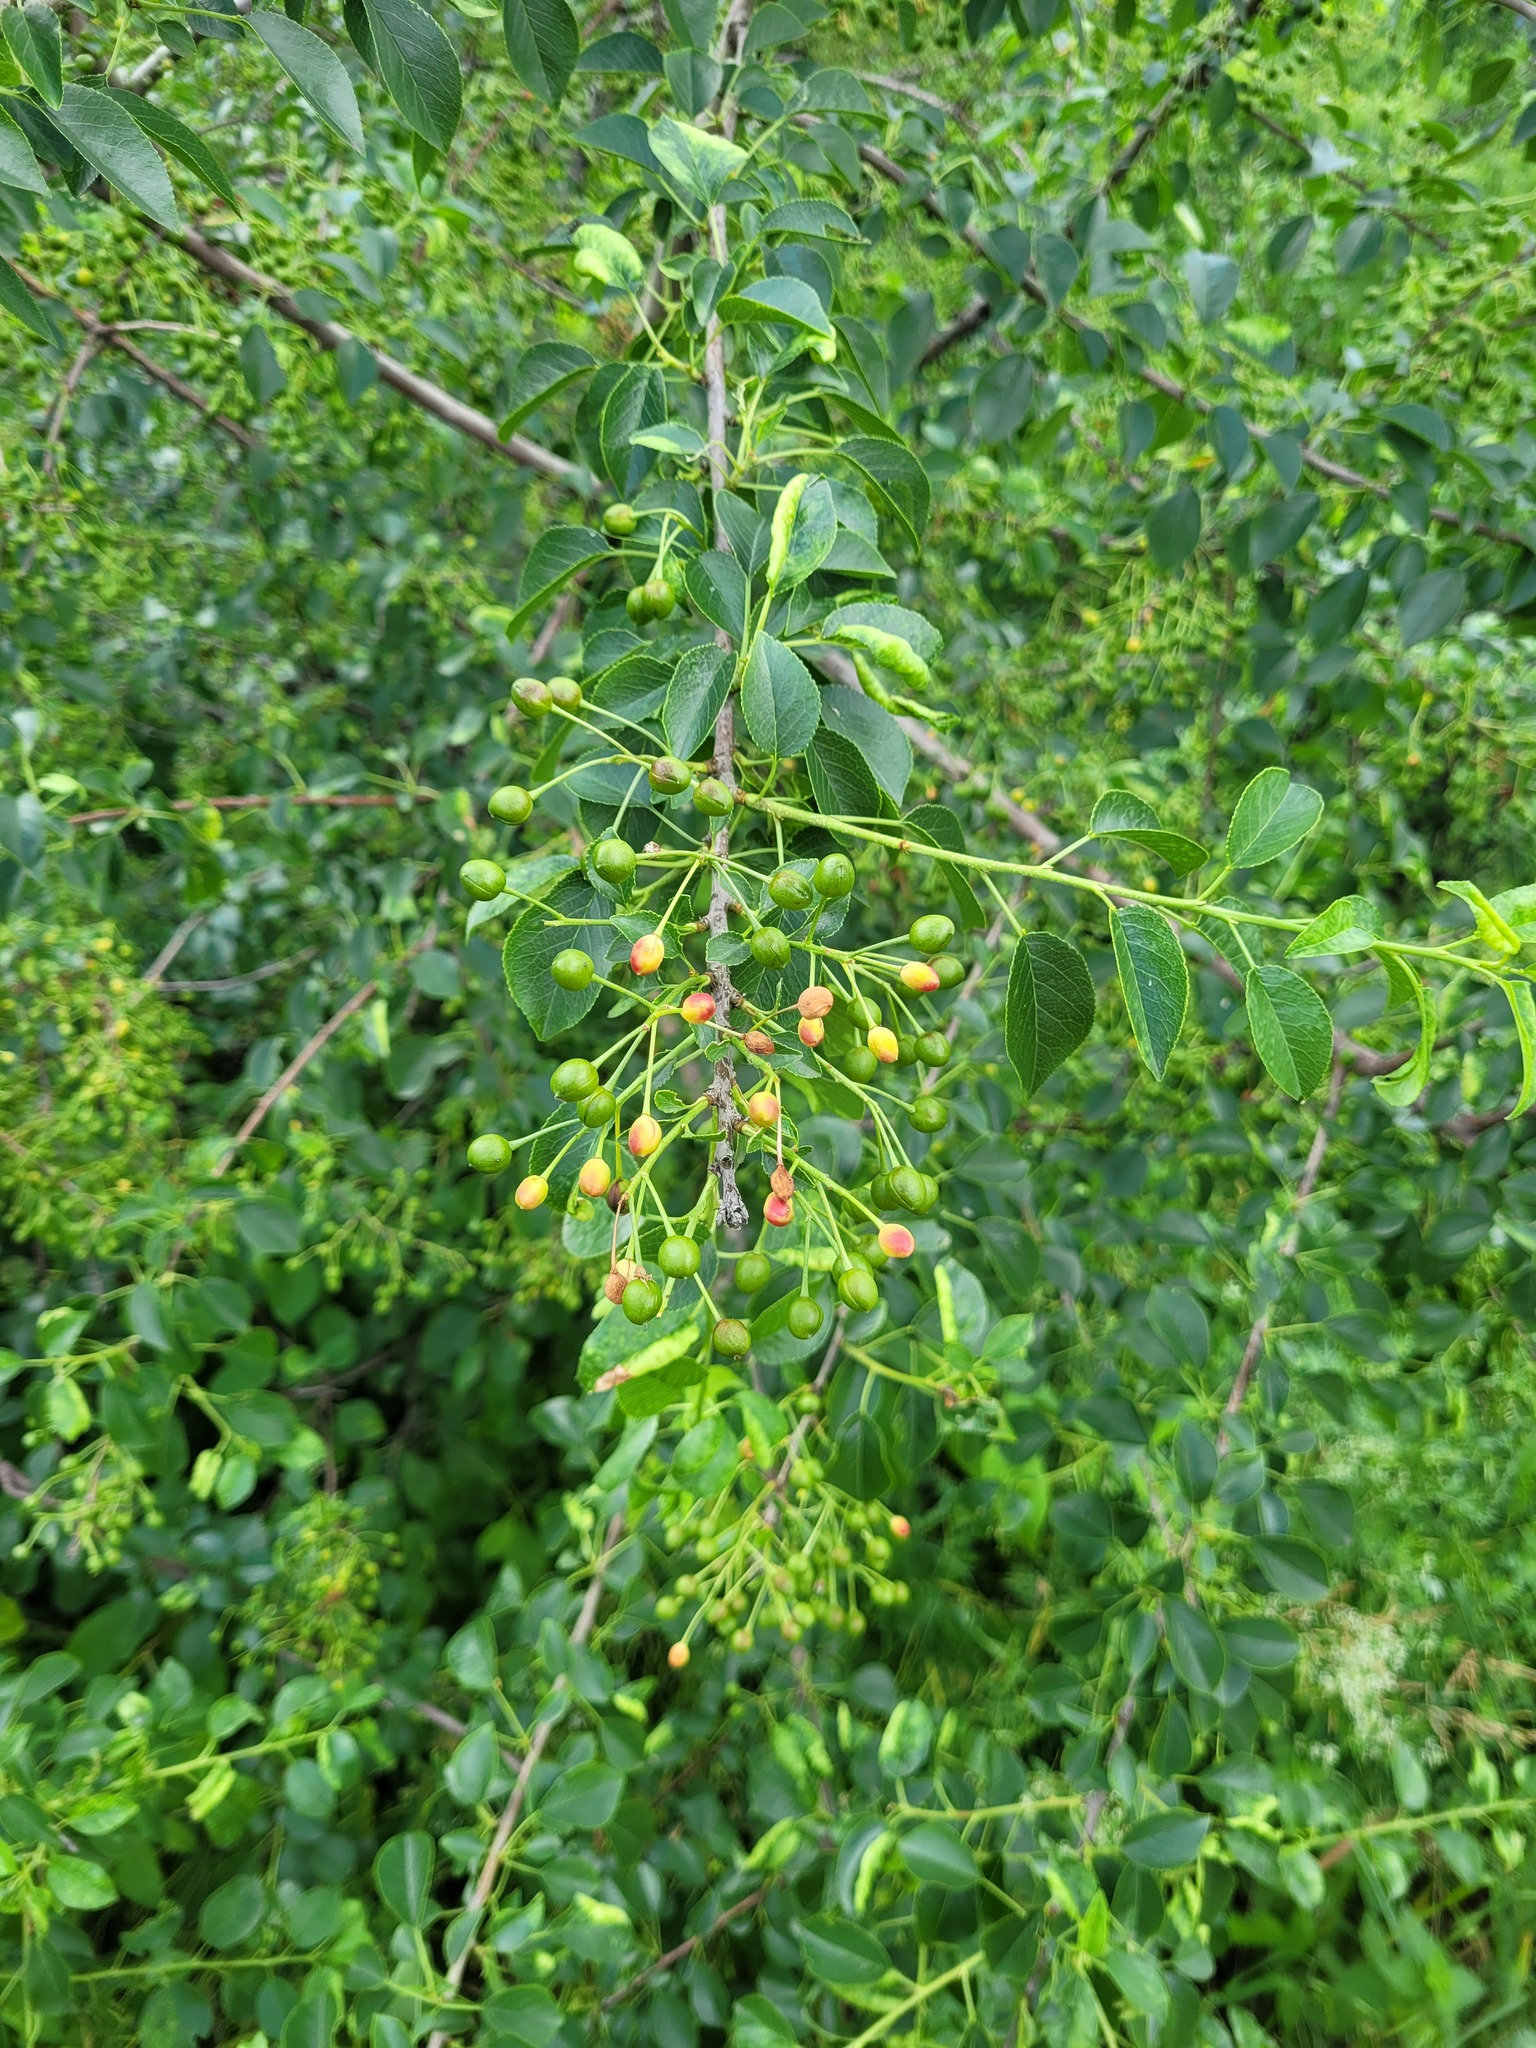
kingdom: Plantae
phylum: Tracheophyta
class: Magnoliopsida
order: Rosales
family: Rosaceae
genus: Prunus
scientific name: Prunus mahaleb
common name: Mahaleb cherry
